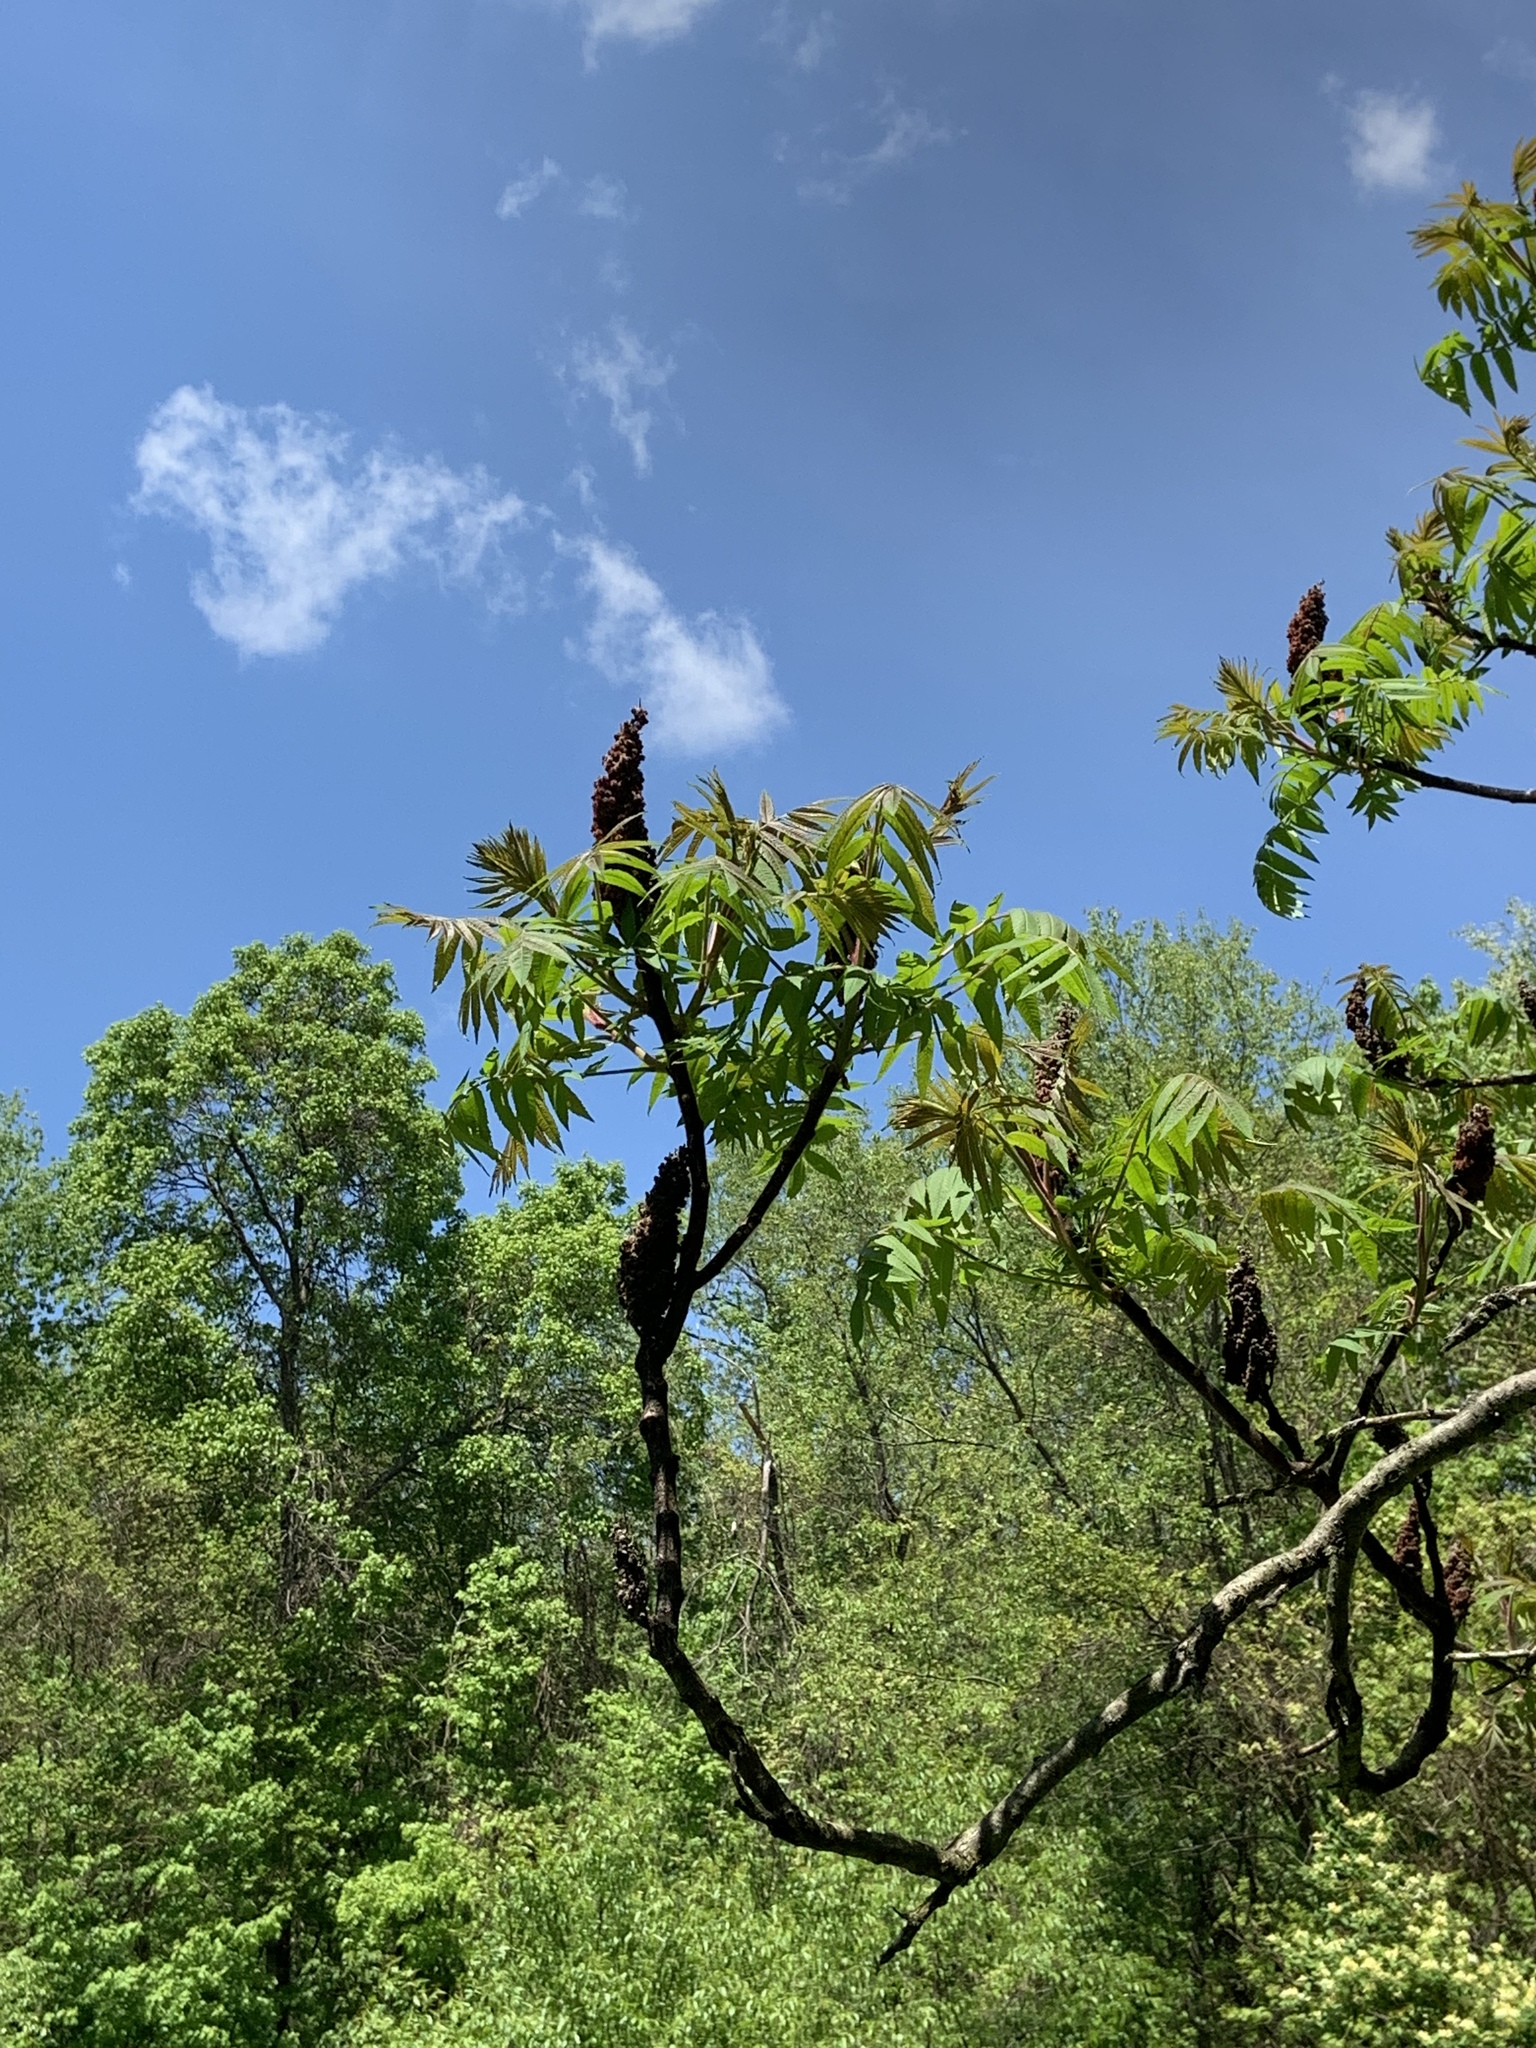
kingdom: Plantae
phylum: Tracheophyta
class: Magnoliopsida
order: Sapindales
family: Anacardiaceae
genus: Rhus
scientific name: Rhus typhina
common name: Staghorn sumac
